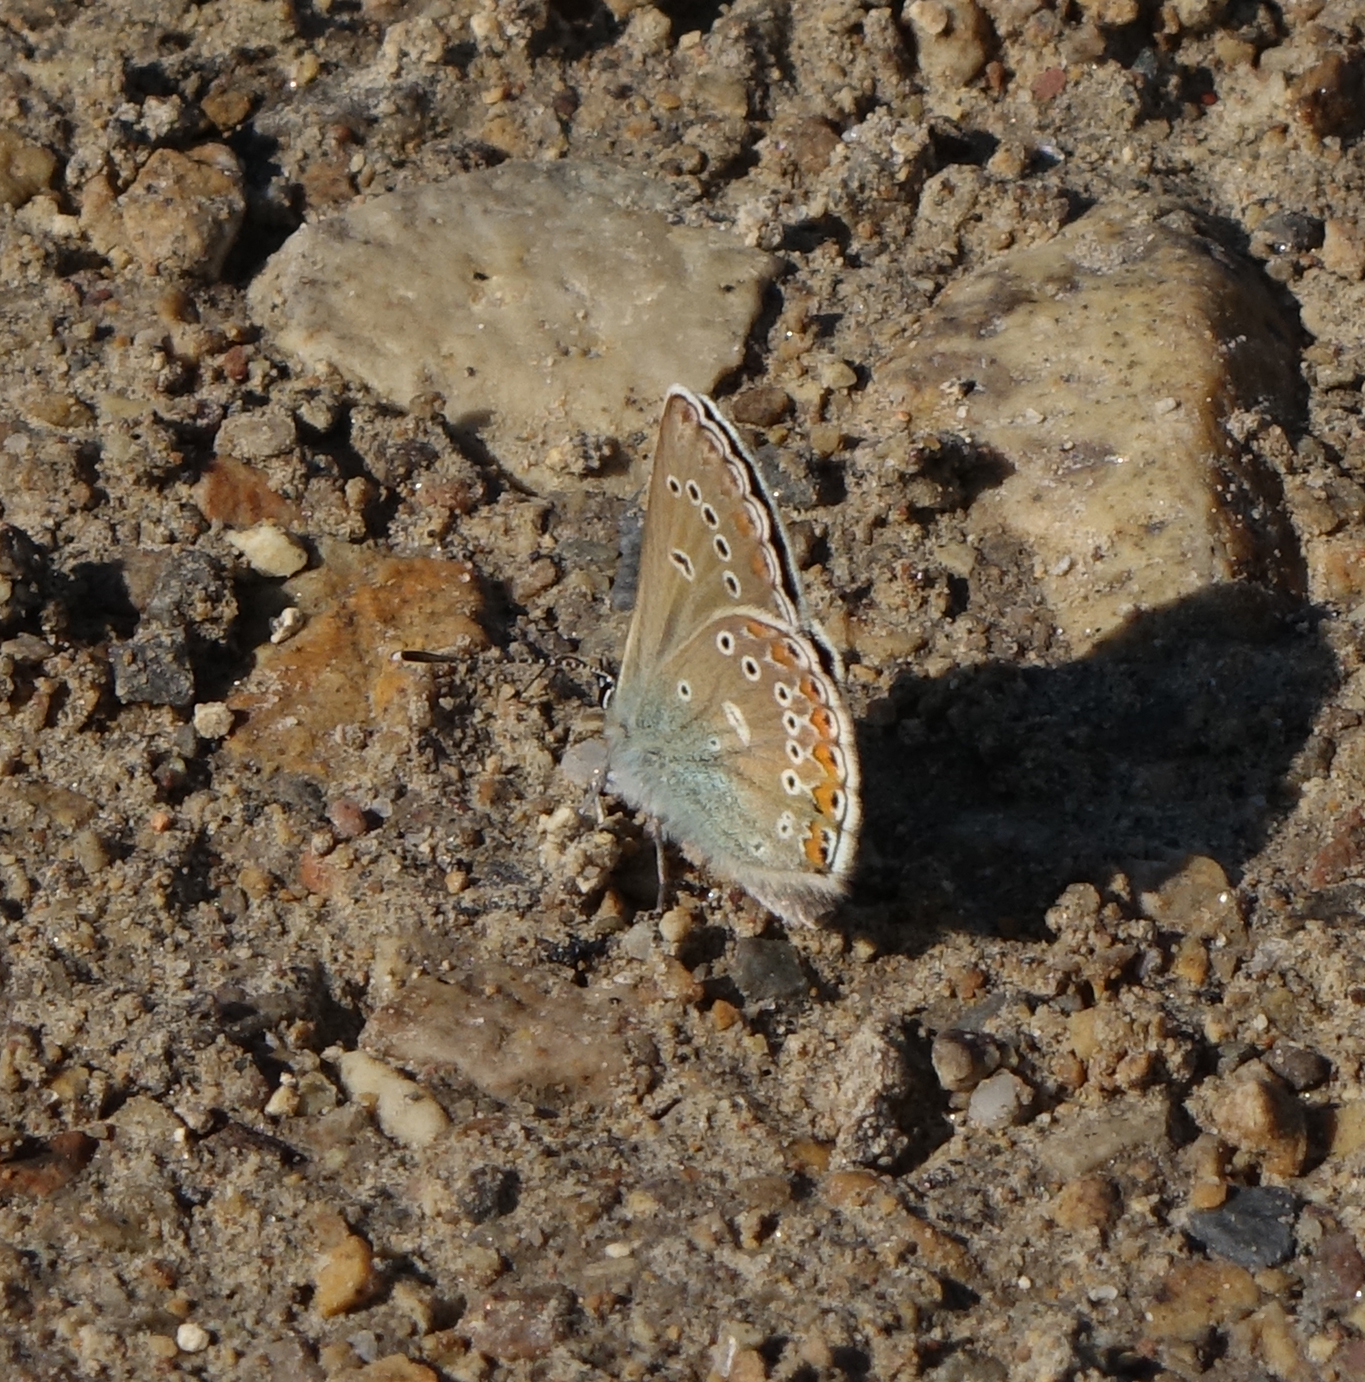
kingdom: Animalia
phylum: Arthropoda
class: Insecta
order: Lepidoptera
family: Lycaenidae
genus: Eumedonia
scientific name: Eumedonia eumedon
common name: Geranium argus
